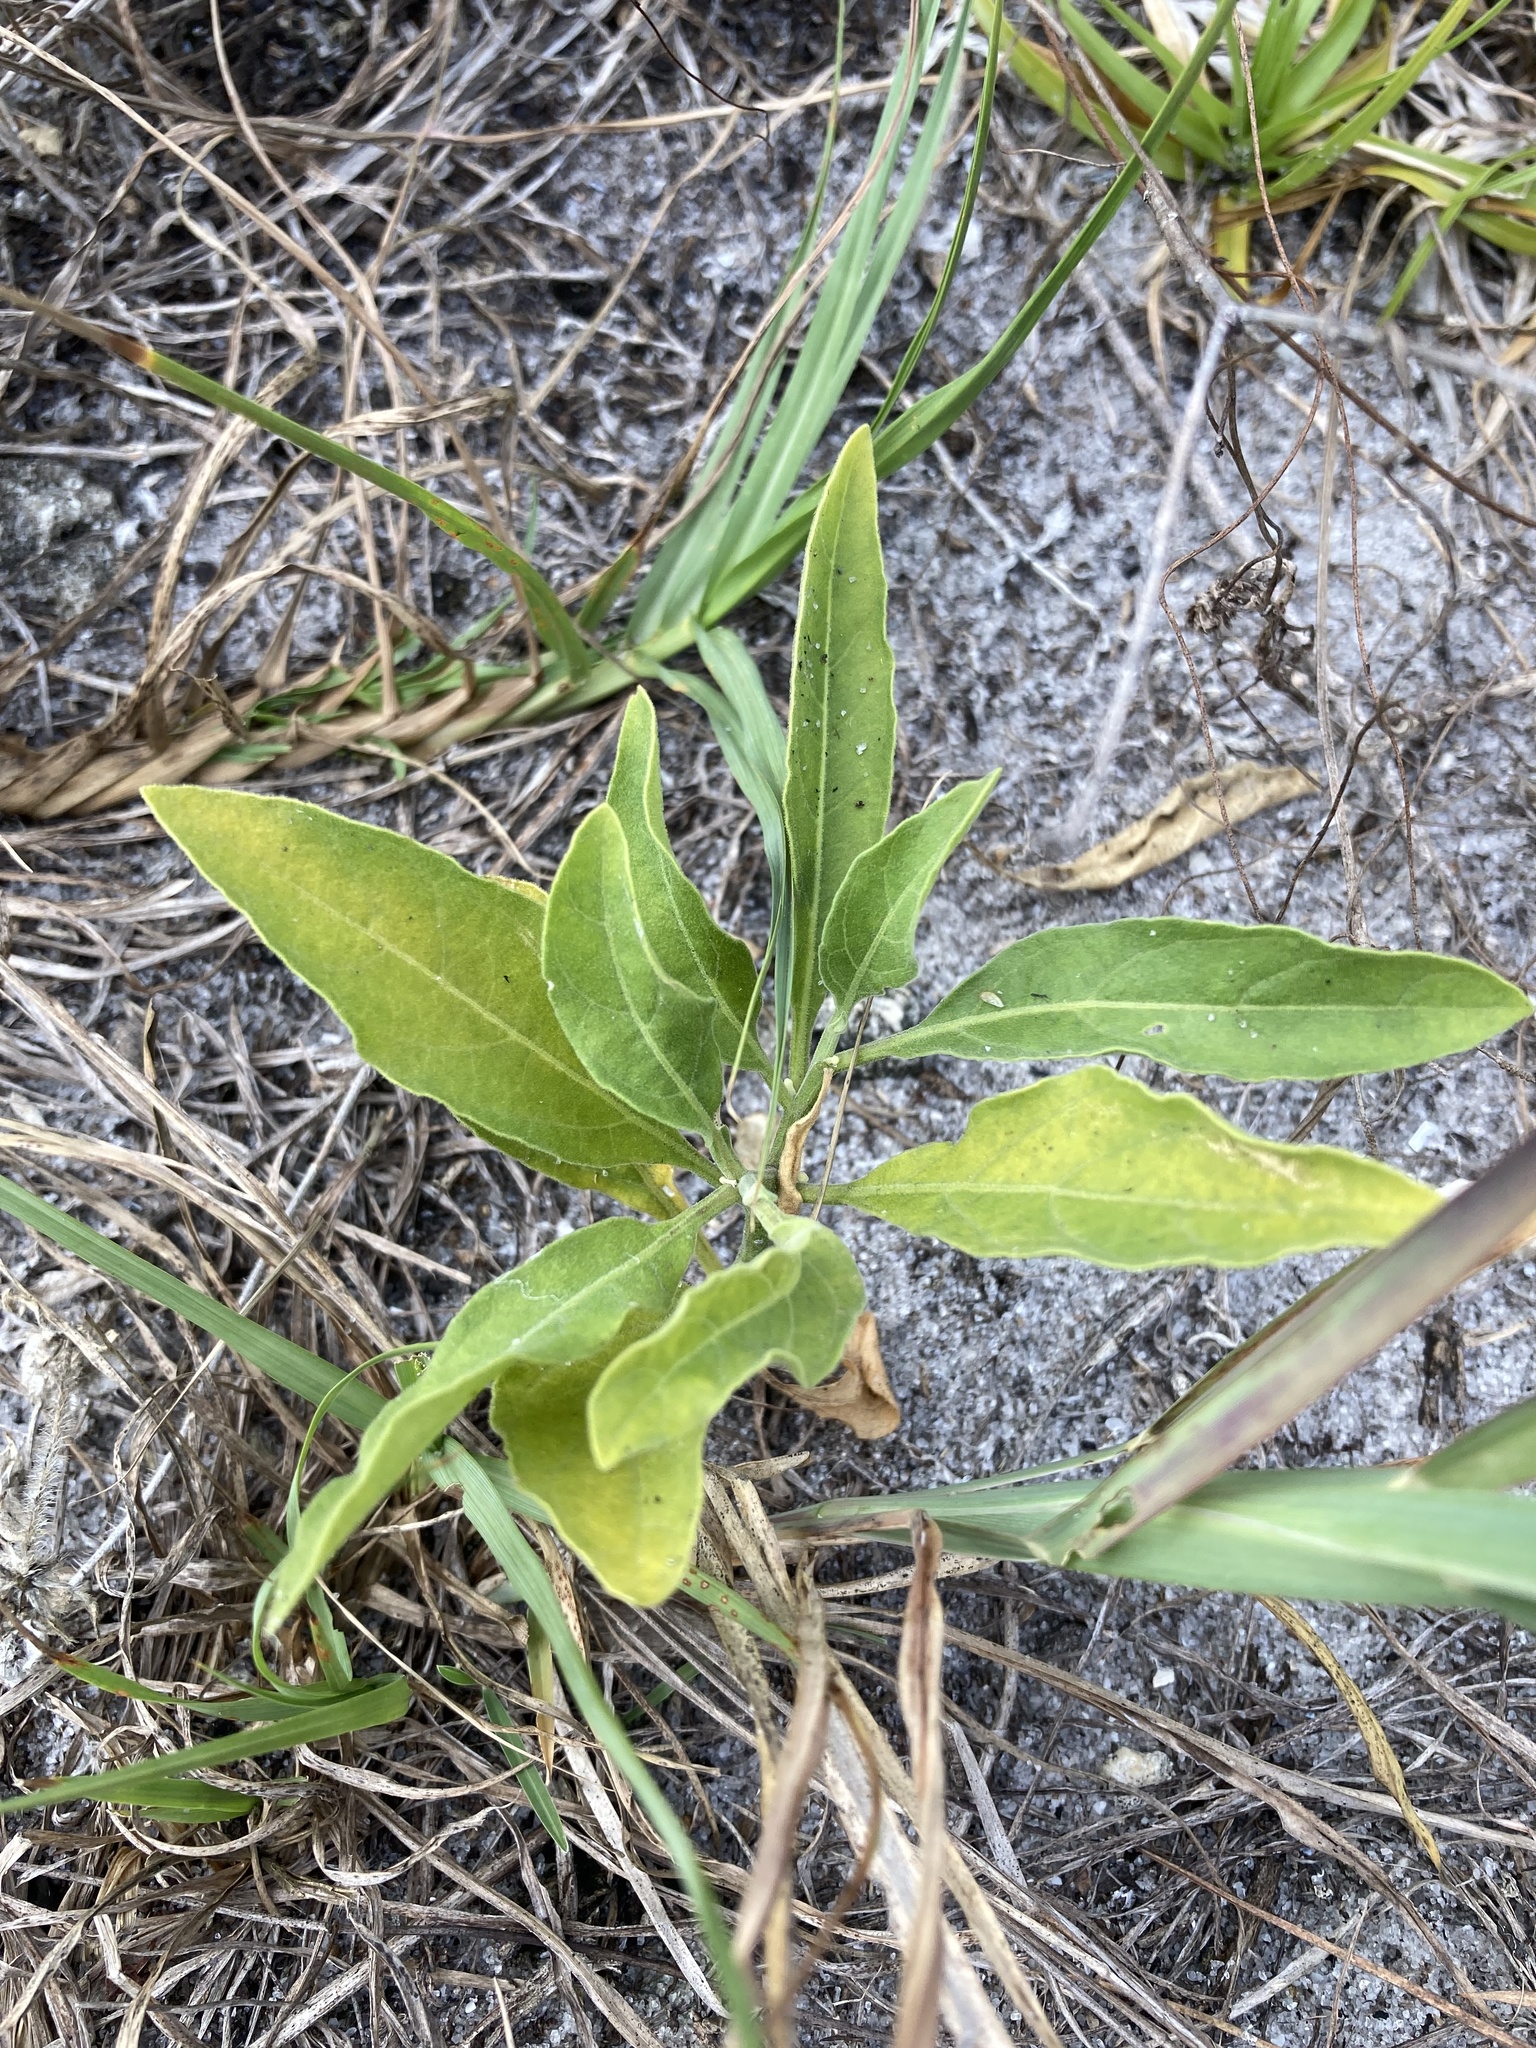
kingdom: Plantae
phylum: Tracheophyta
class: Magnoliopsida
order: Solanales
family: Solanaceae
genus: Physalis
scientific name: Physalis walteri
